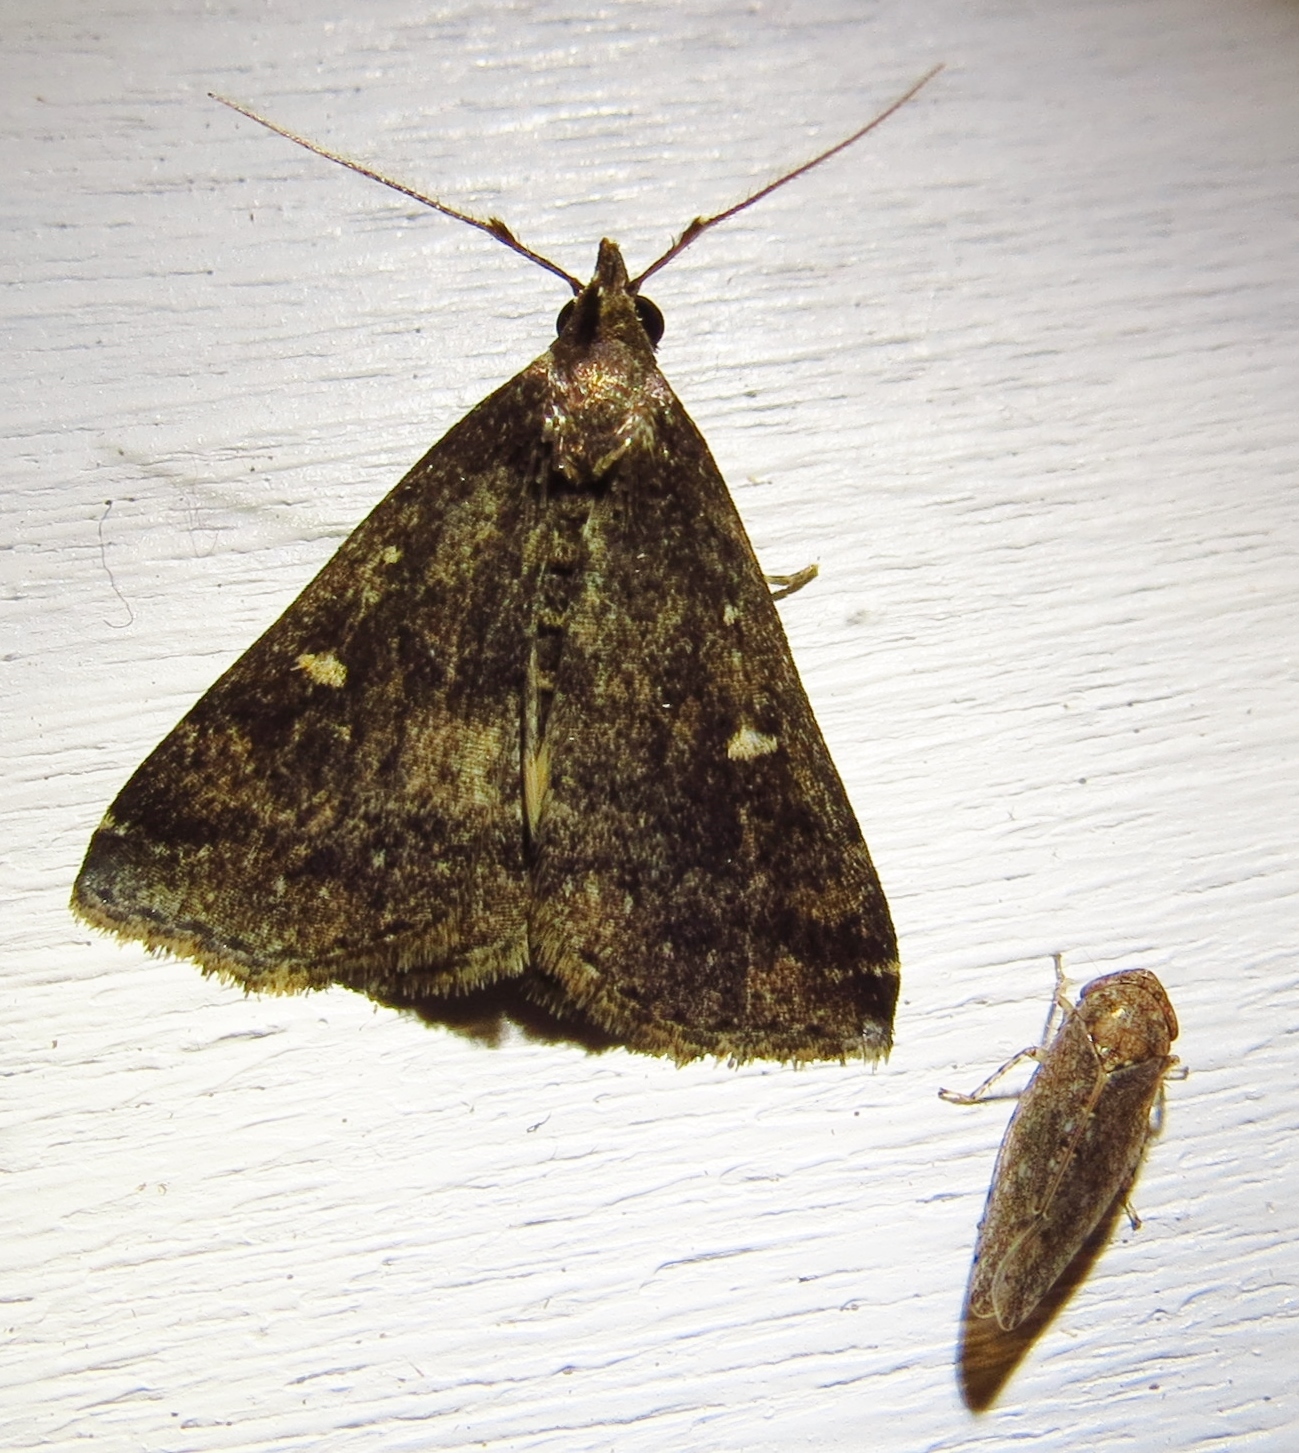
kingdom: Animalia
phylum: Arthropoda
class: Insecta
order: Lepidoptera
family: Erebidae
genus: Tetanolita
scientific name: Tetanolita mynesalis
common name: Smoky tetanolita moth
